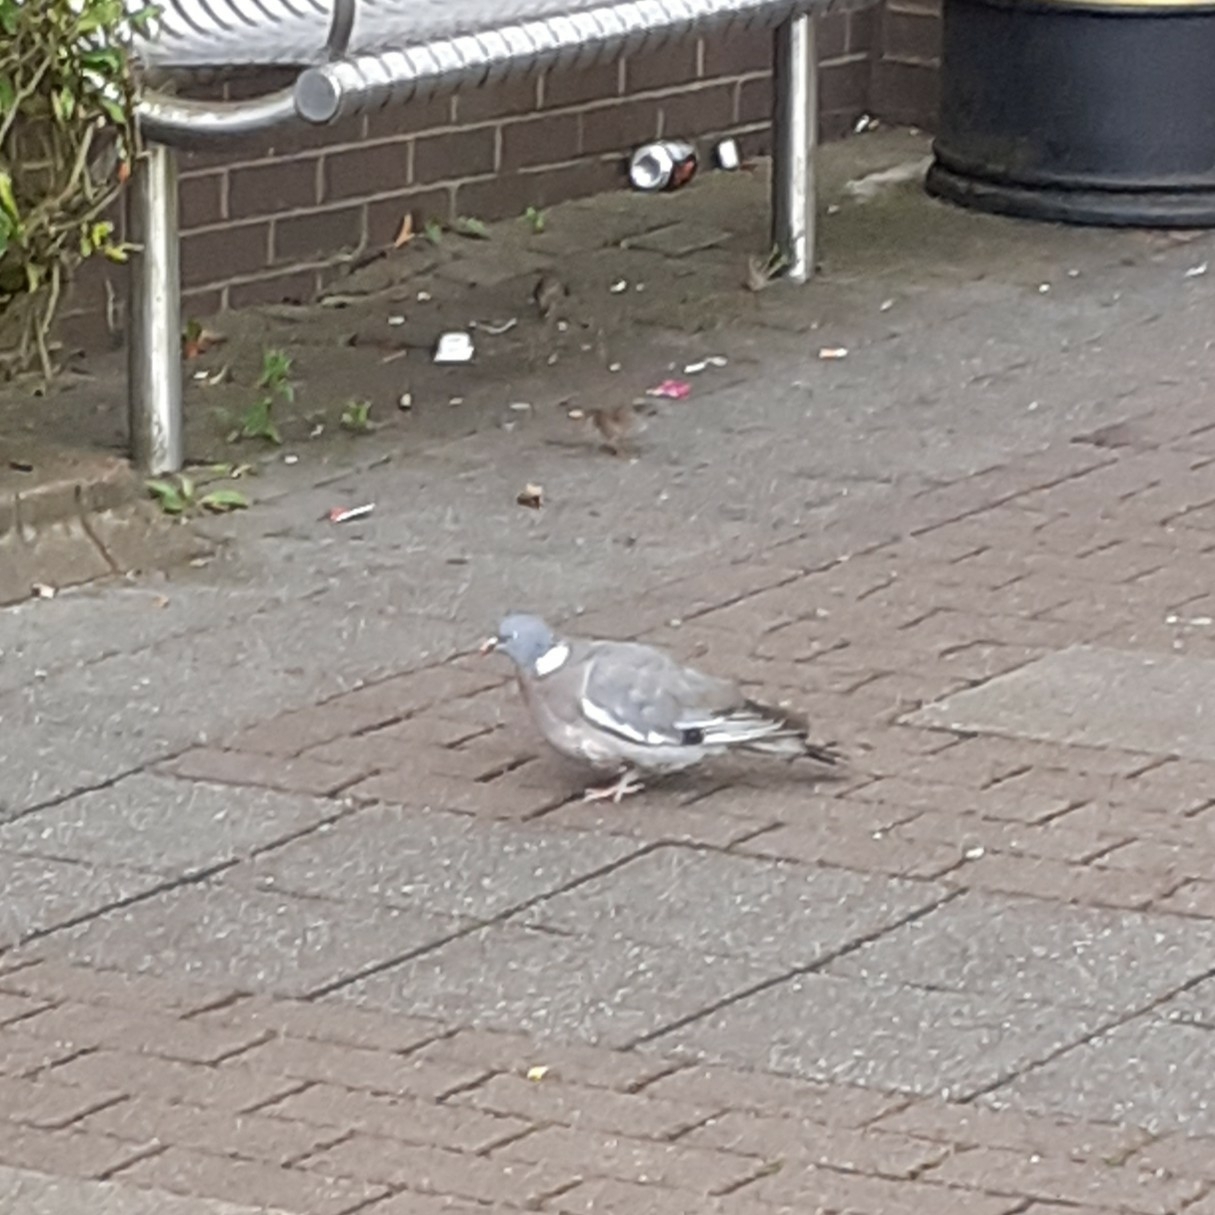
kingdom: Animalia
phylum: Chordata
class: Aves
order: Columbiformes
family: Columbidae
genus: Columba
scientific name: Columba palumbus
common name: Common wood pigeon
